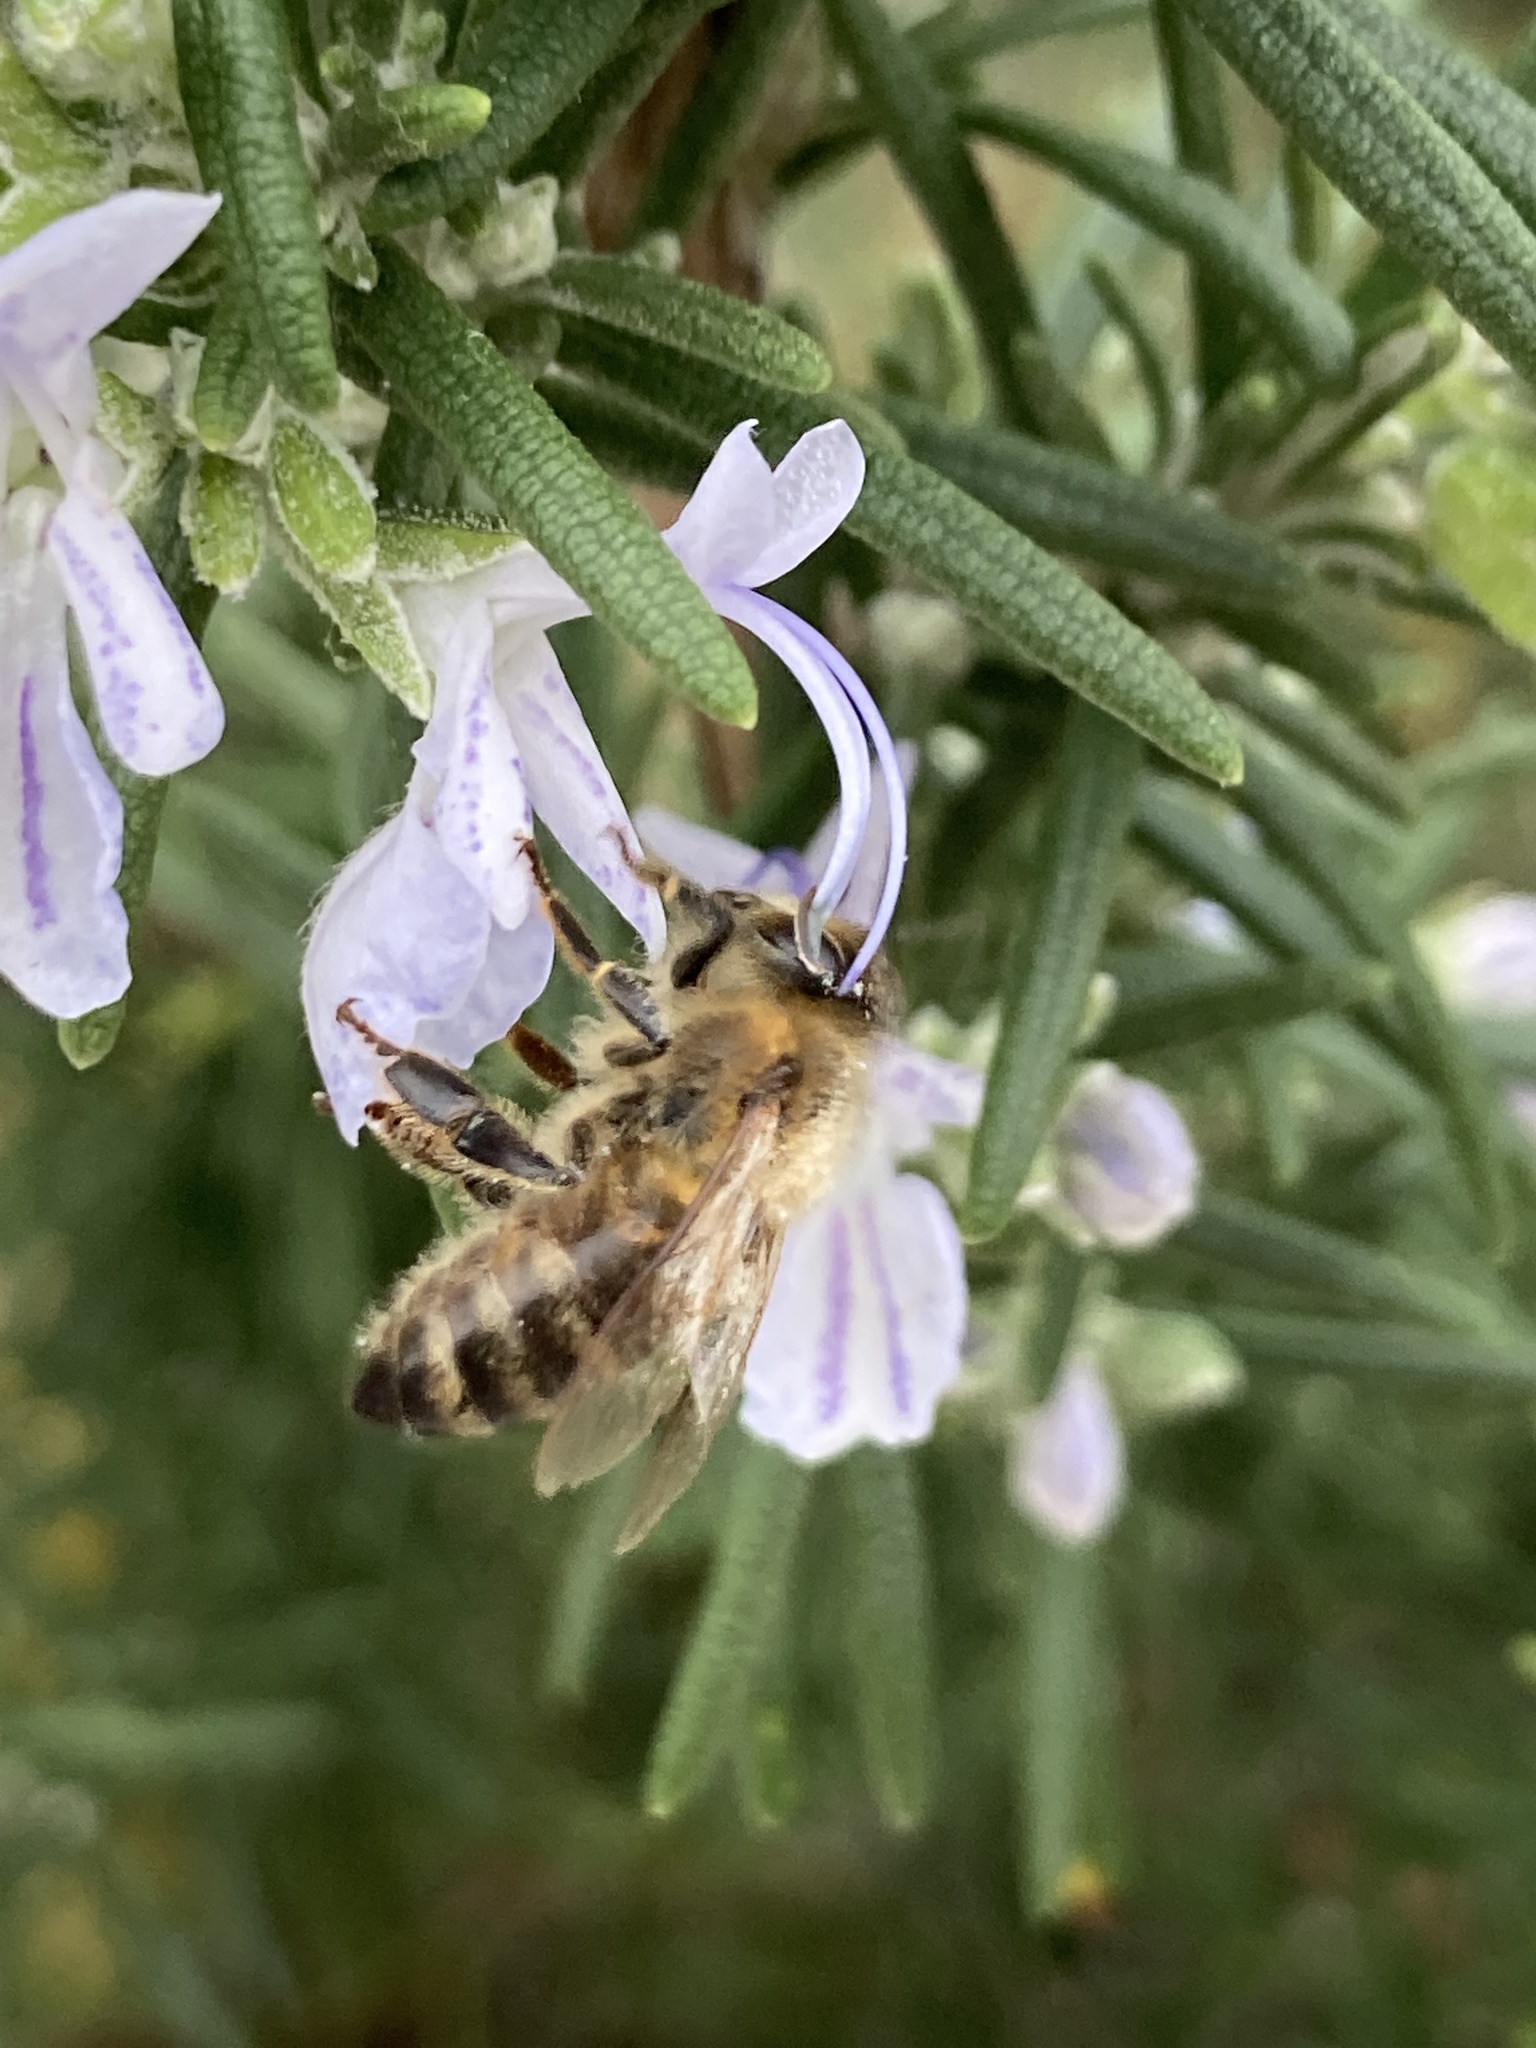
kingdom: Animalia
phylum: Arthropoda
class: Insecta
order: Hymenoptera
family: Apidae
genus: Apis
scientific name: Apis mellifera
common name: Honey bee
